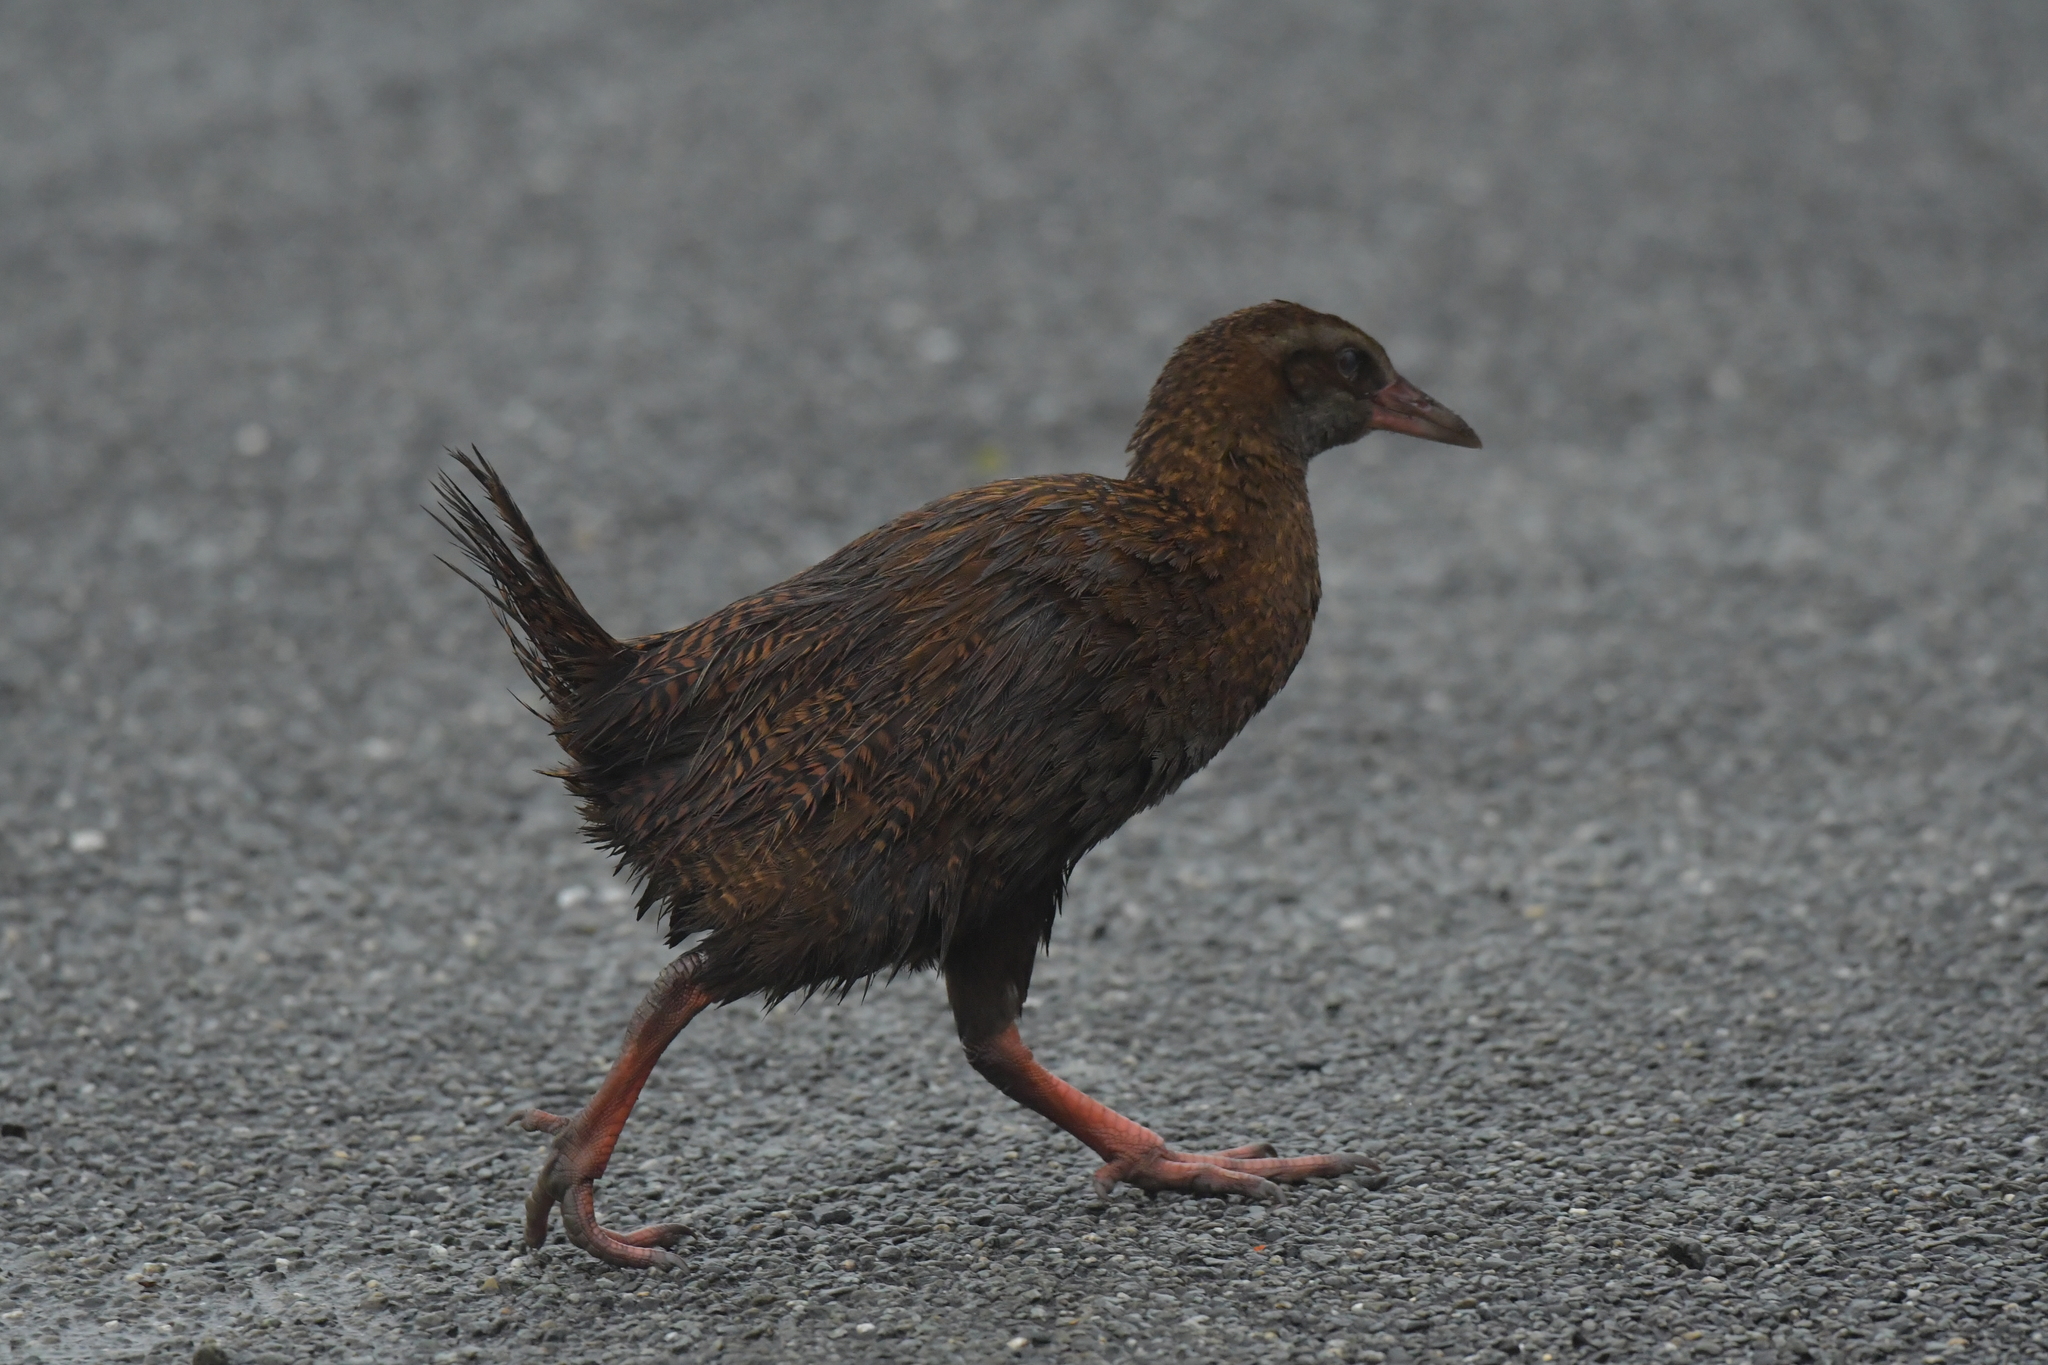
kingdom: Animalia
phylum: Chordata
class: Aves
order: Gruiformes
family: Rallidae
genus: Gallirallus
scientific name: Gallirallus australis
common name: Weka
